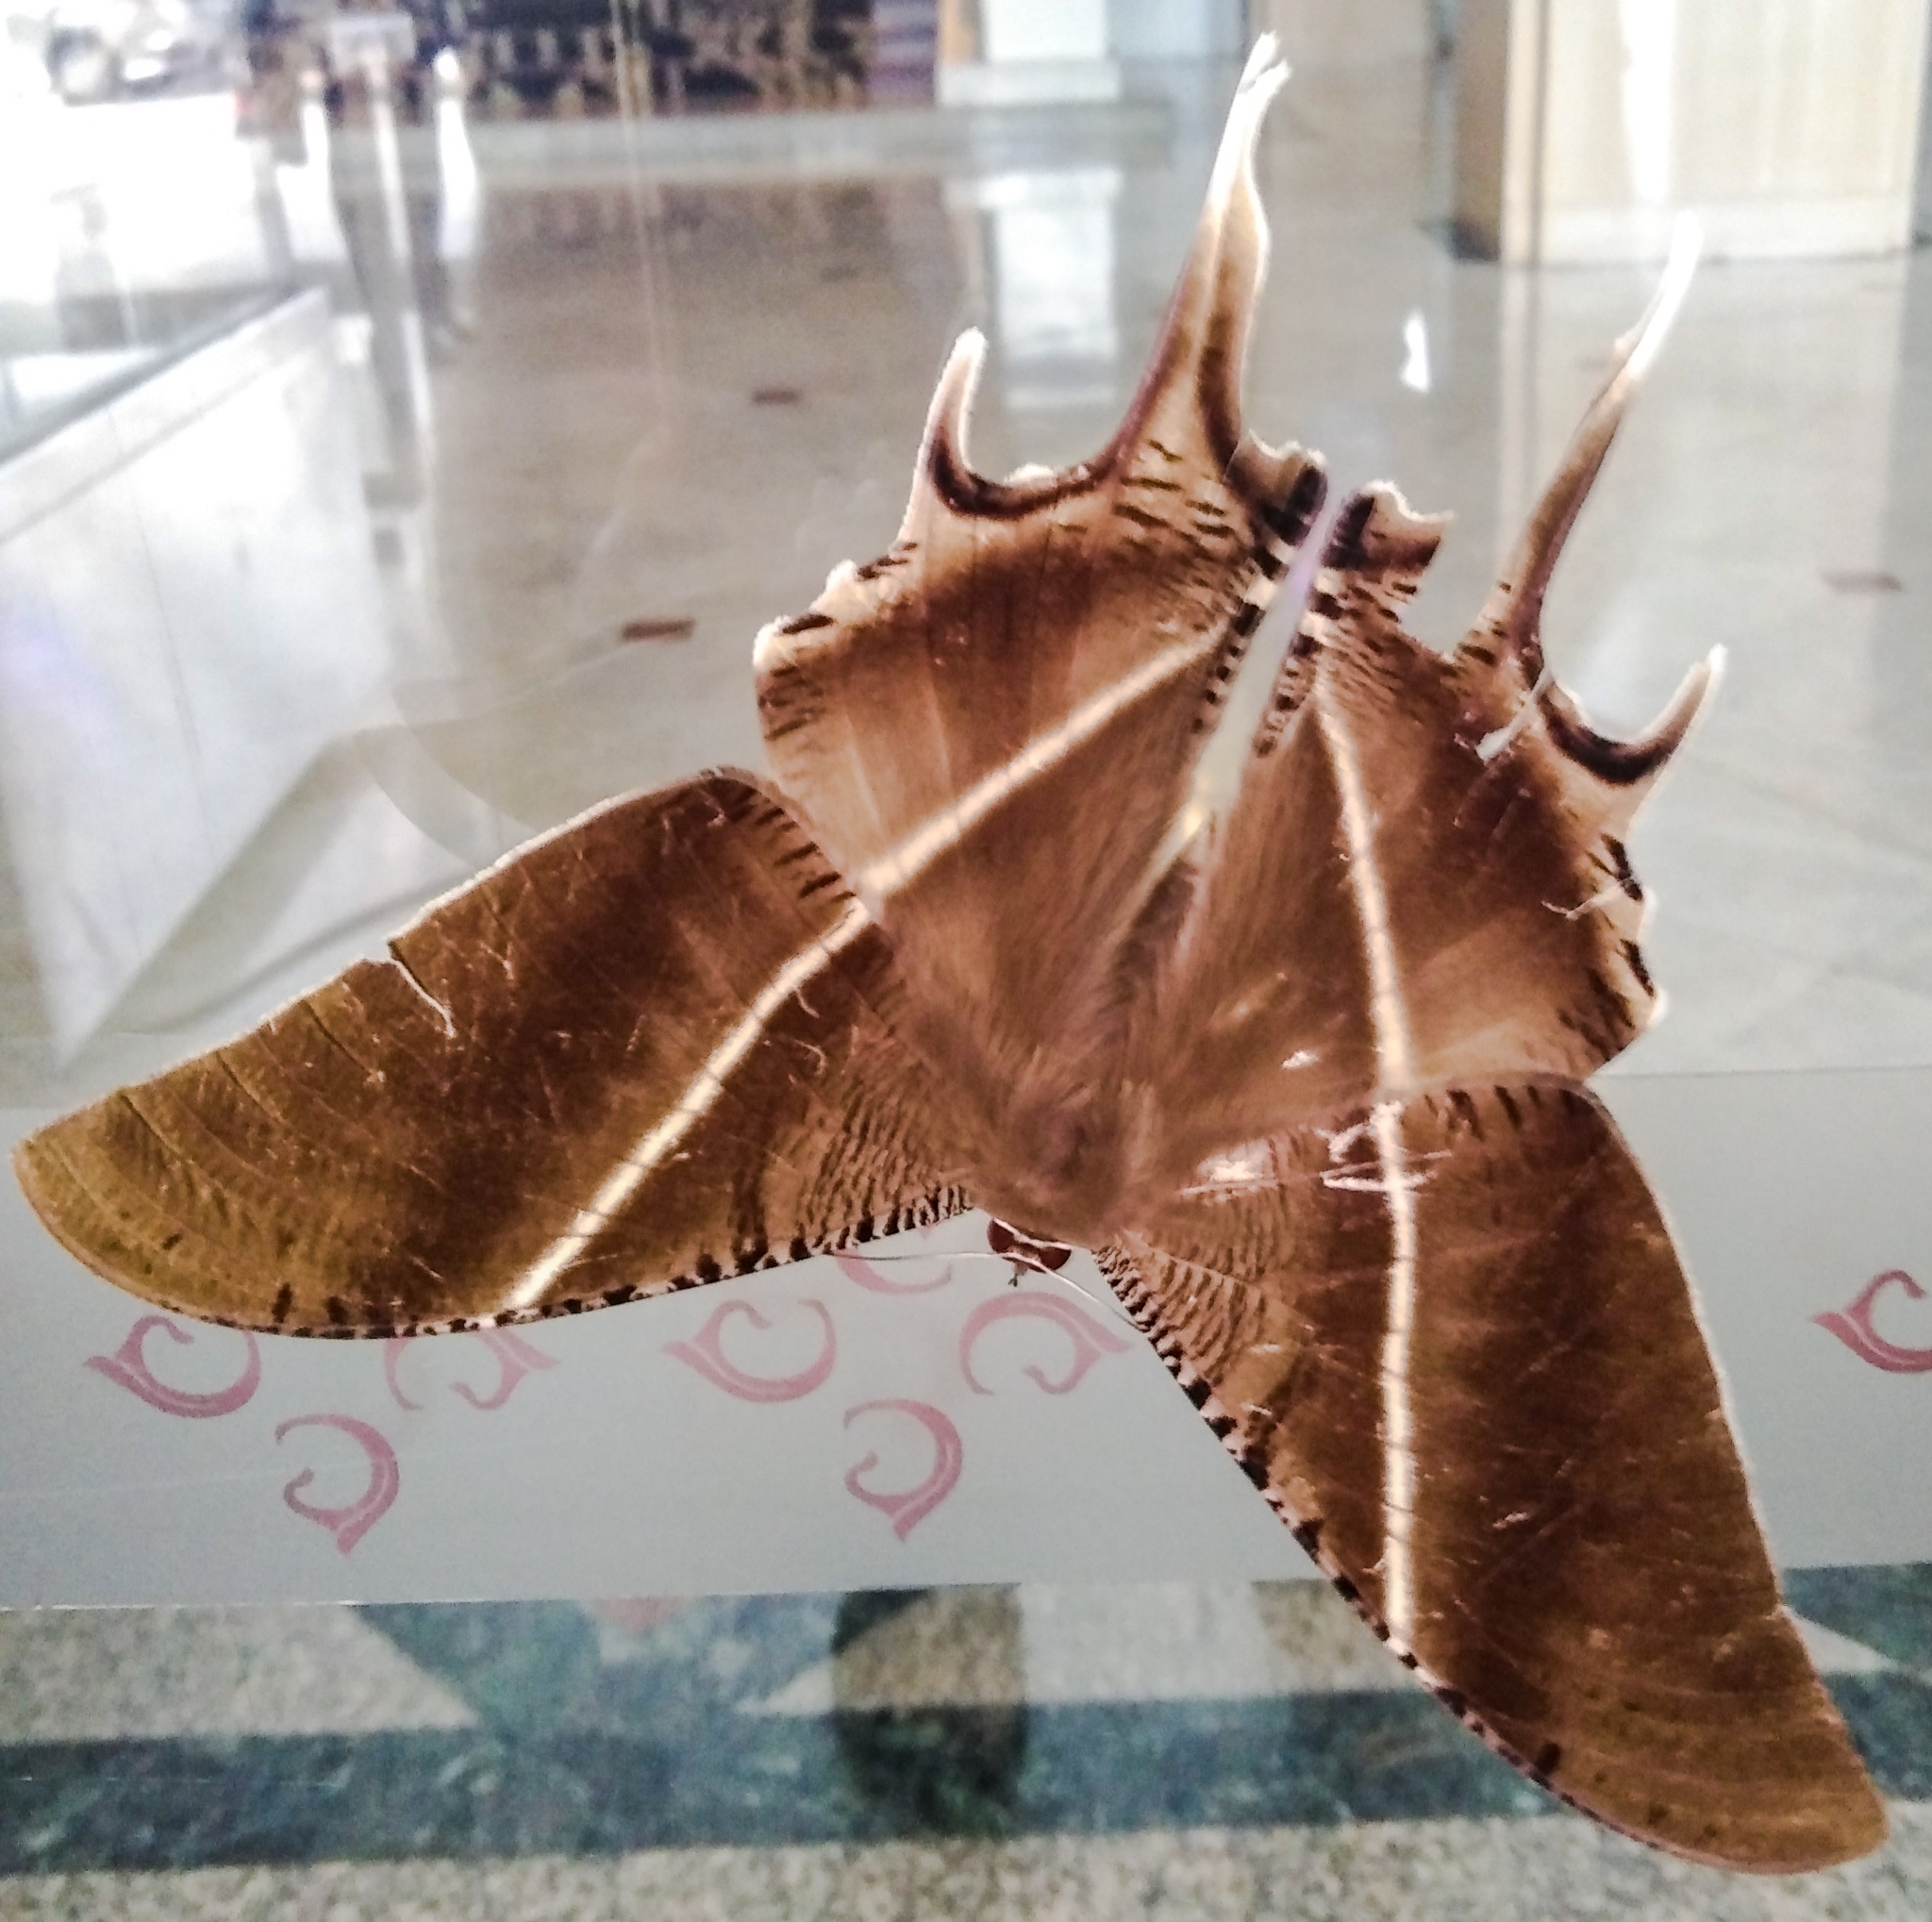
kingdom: Animalia
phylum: Arthropoda
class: Insecta
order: Lepidoptera
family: Uraniidae
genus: Lyssa
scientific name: Lyssa zampa
